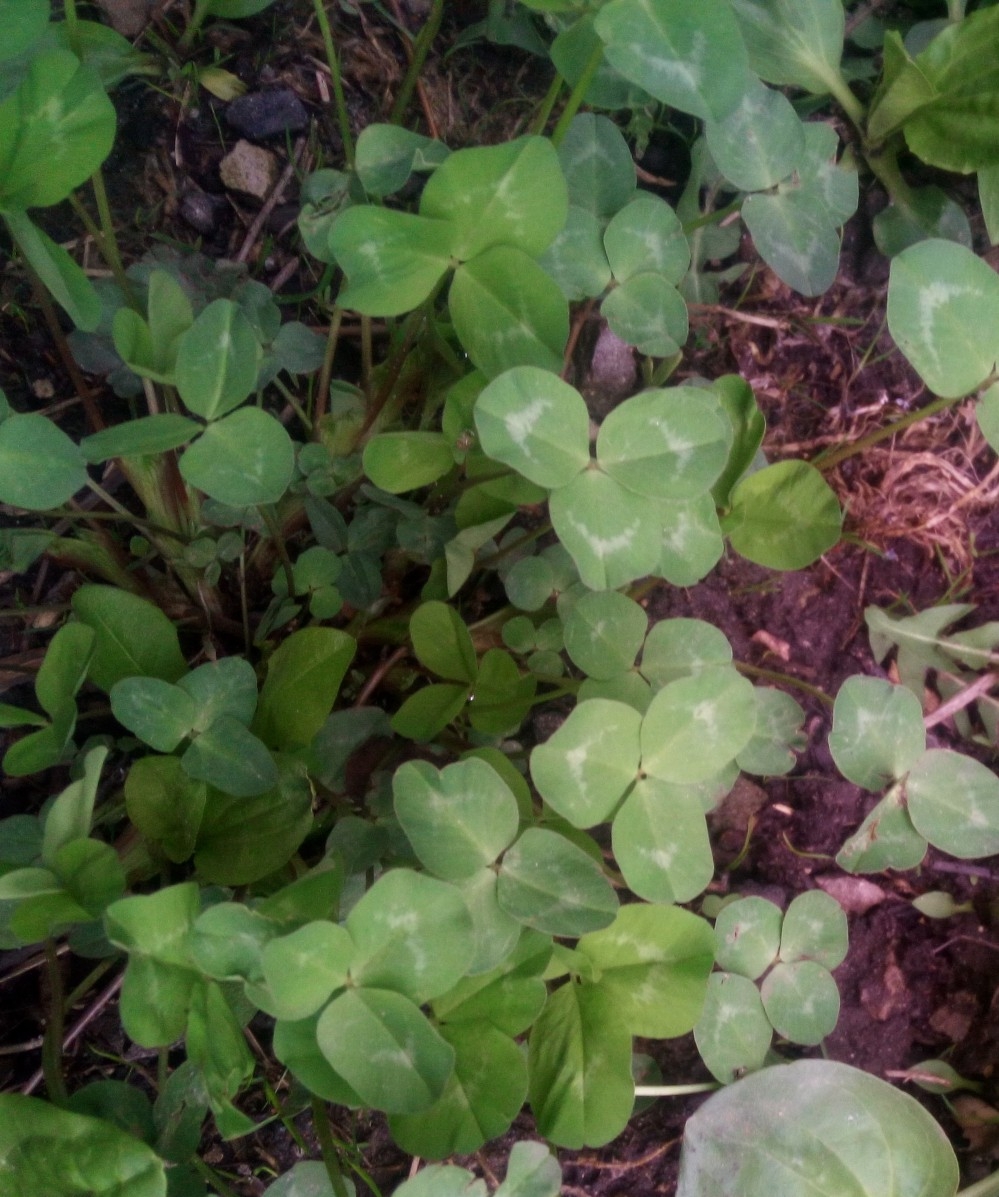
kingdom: Plantae
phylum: Tracheophyta
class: Magnoliopsida
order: Fabales
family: Fabaceae
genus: Trifolium
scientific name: Trifolium pratense
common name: Red clover
